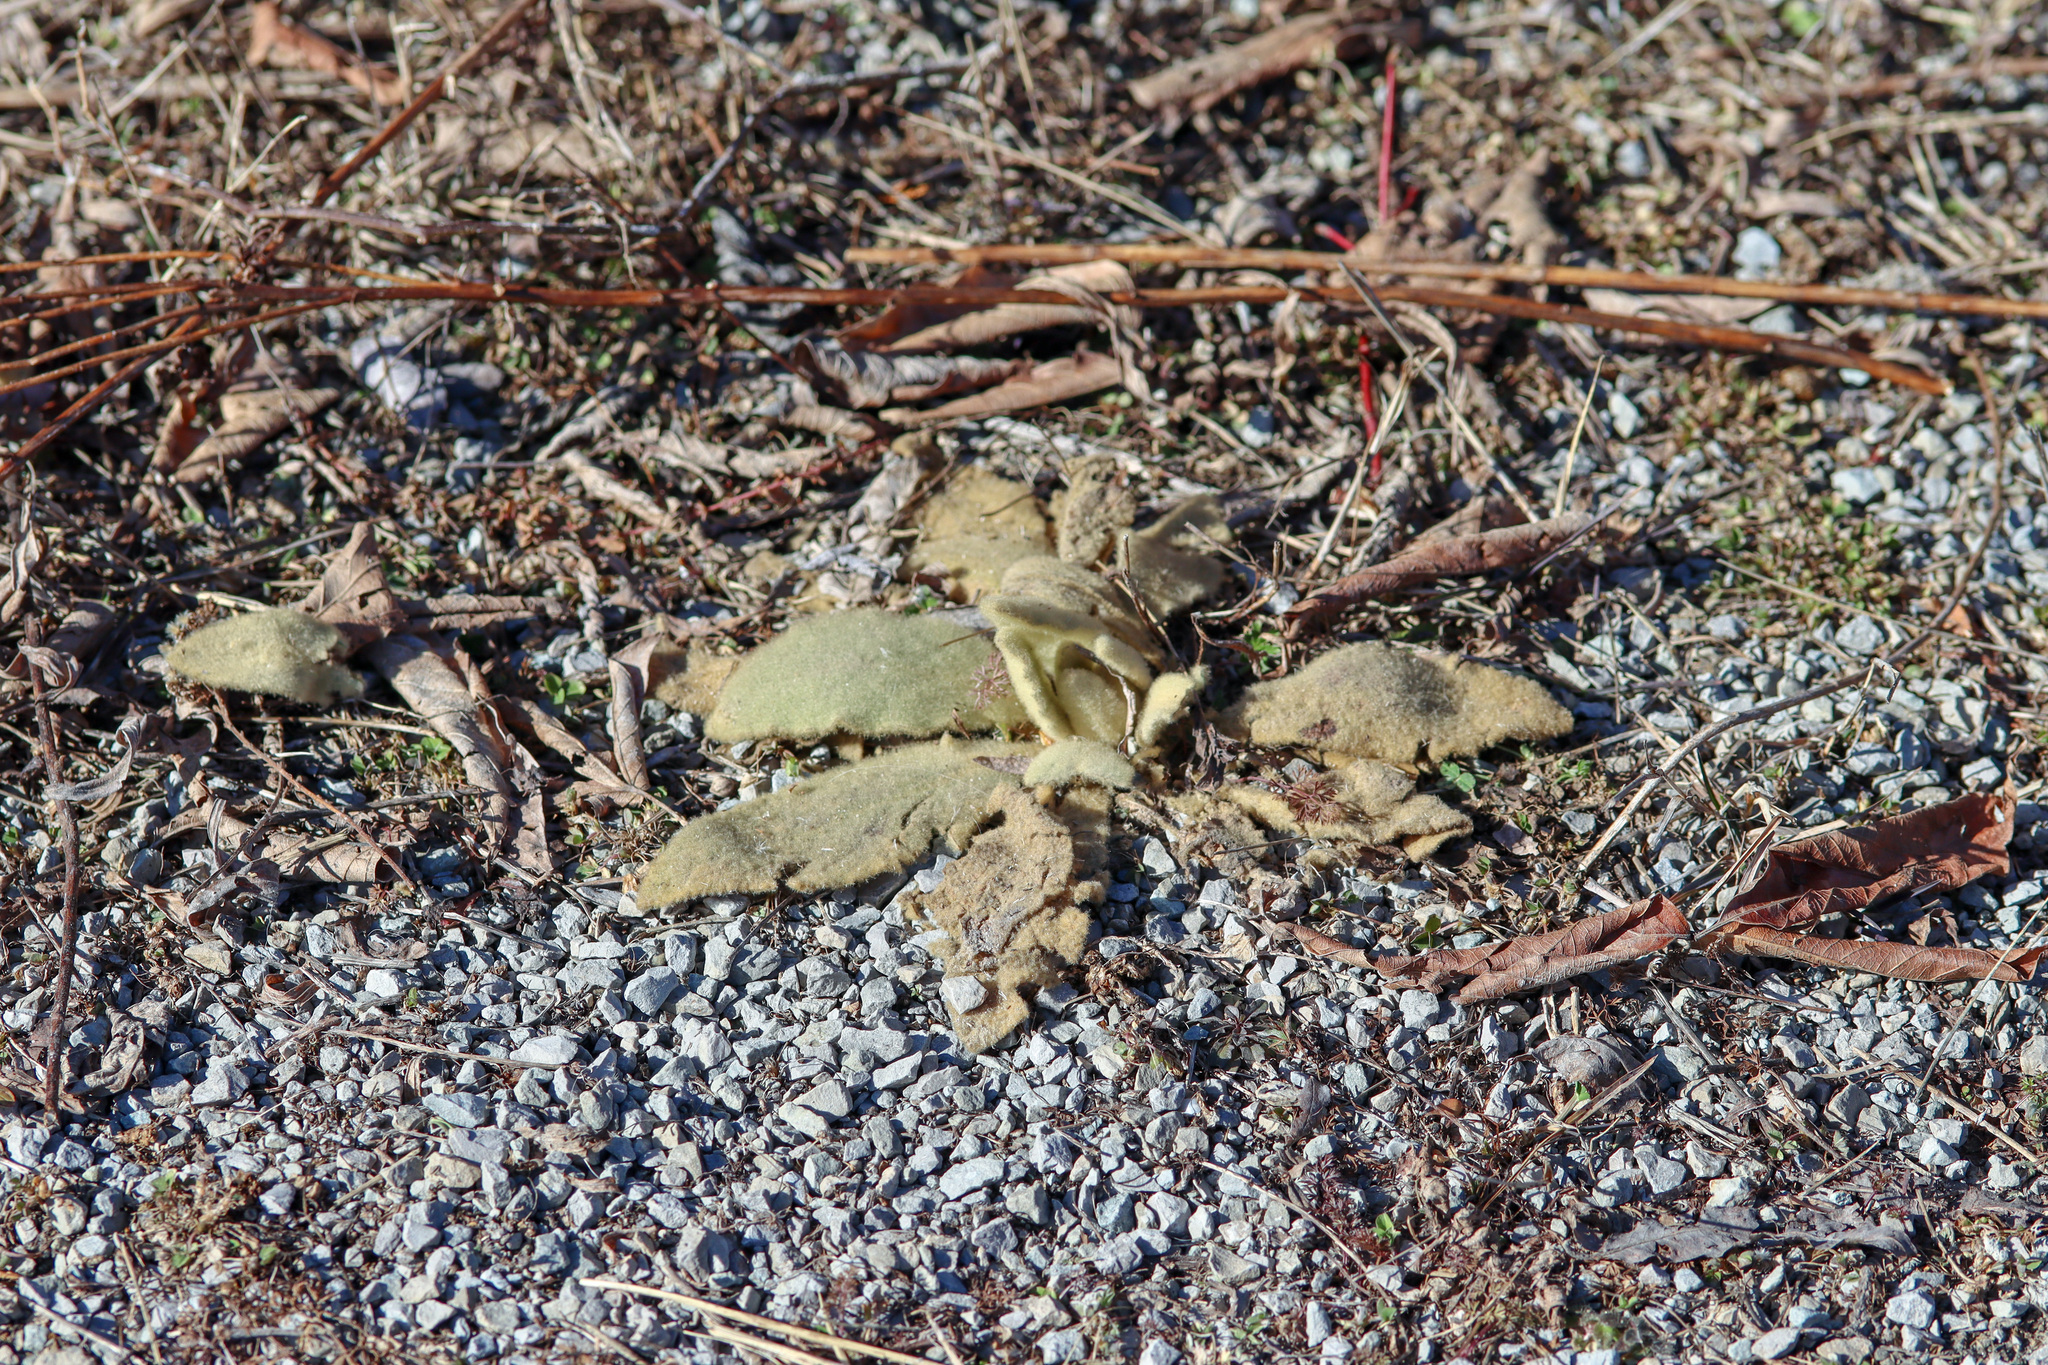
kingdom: Plantae
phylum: Tracheophyta
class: Magnoliopsida
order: Lamiales
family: Scrophulariaceae
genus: Verbascum
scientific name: Verbascum thapsus
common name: Common mullein
